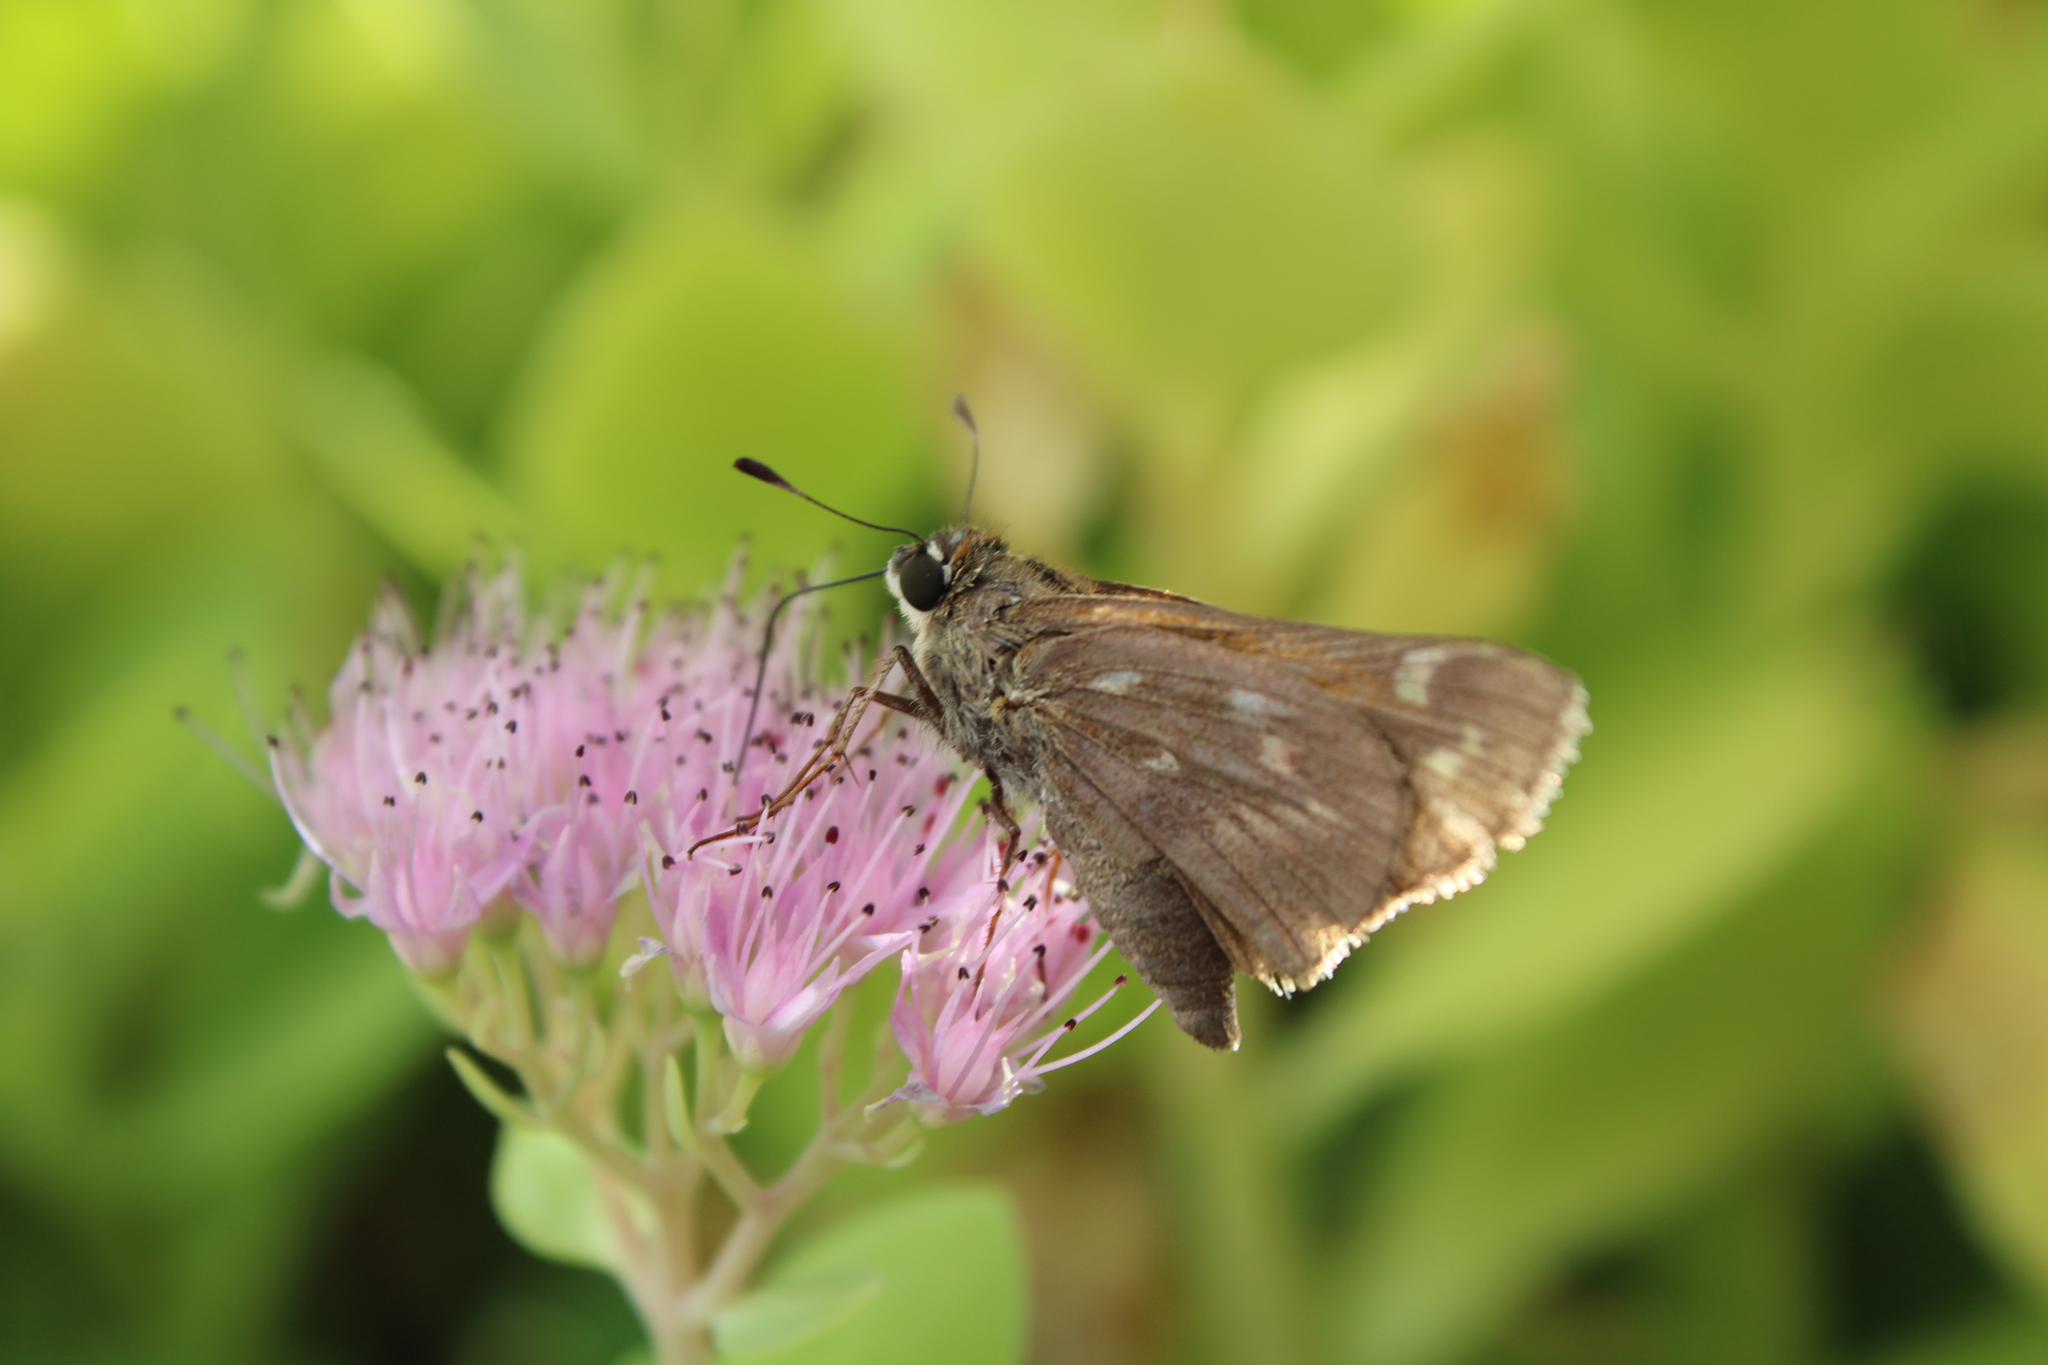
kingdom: Animalia
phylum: Arthropoda
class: Insecta
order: Lepidoptera
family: Hesperiidae
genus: Atalopedes
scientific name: Atalopedes
